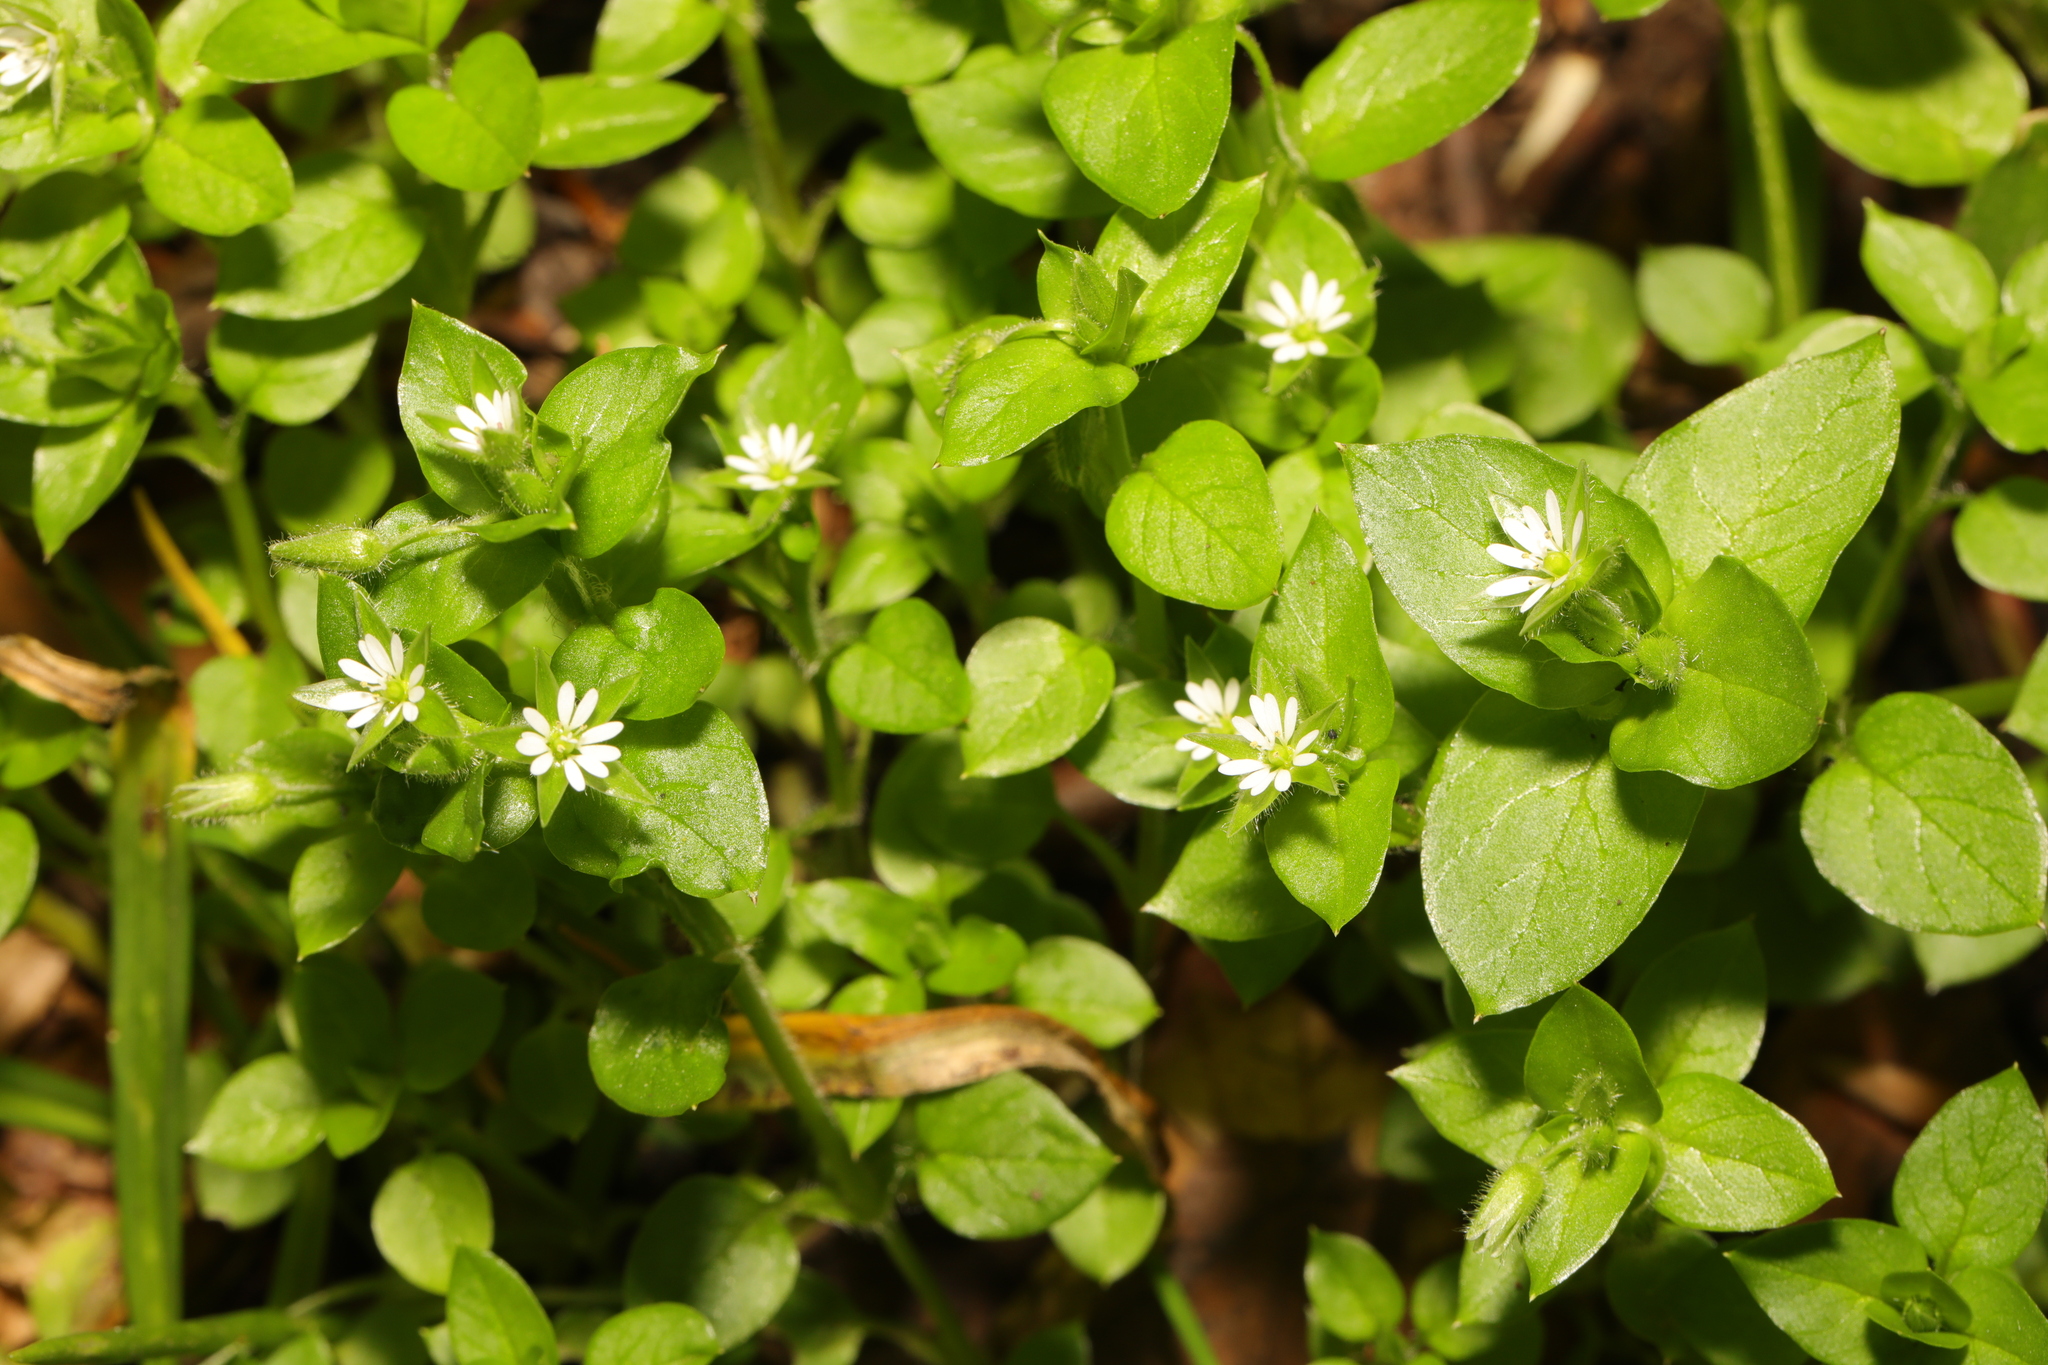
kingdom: Plantae
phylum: Tracheophyta
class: Magnoliopsida
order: Caryophyllales
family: Caryophyllaceae
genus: Stellaria
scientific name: Stellaria media
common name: Common chickweed
